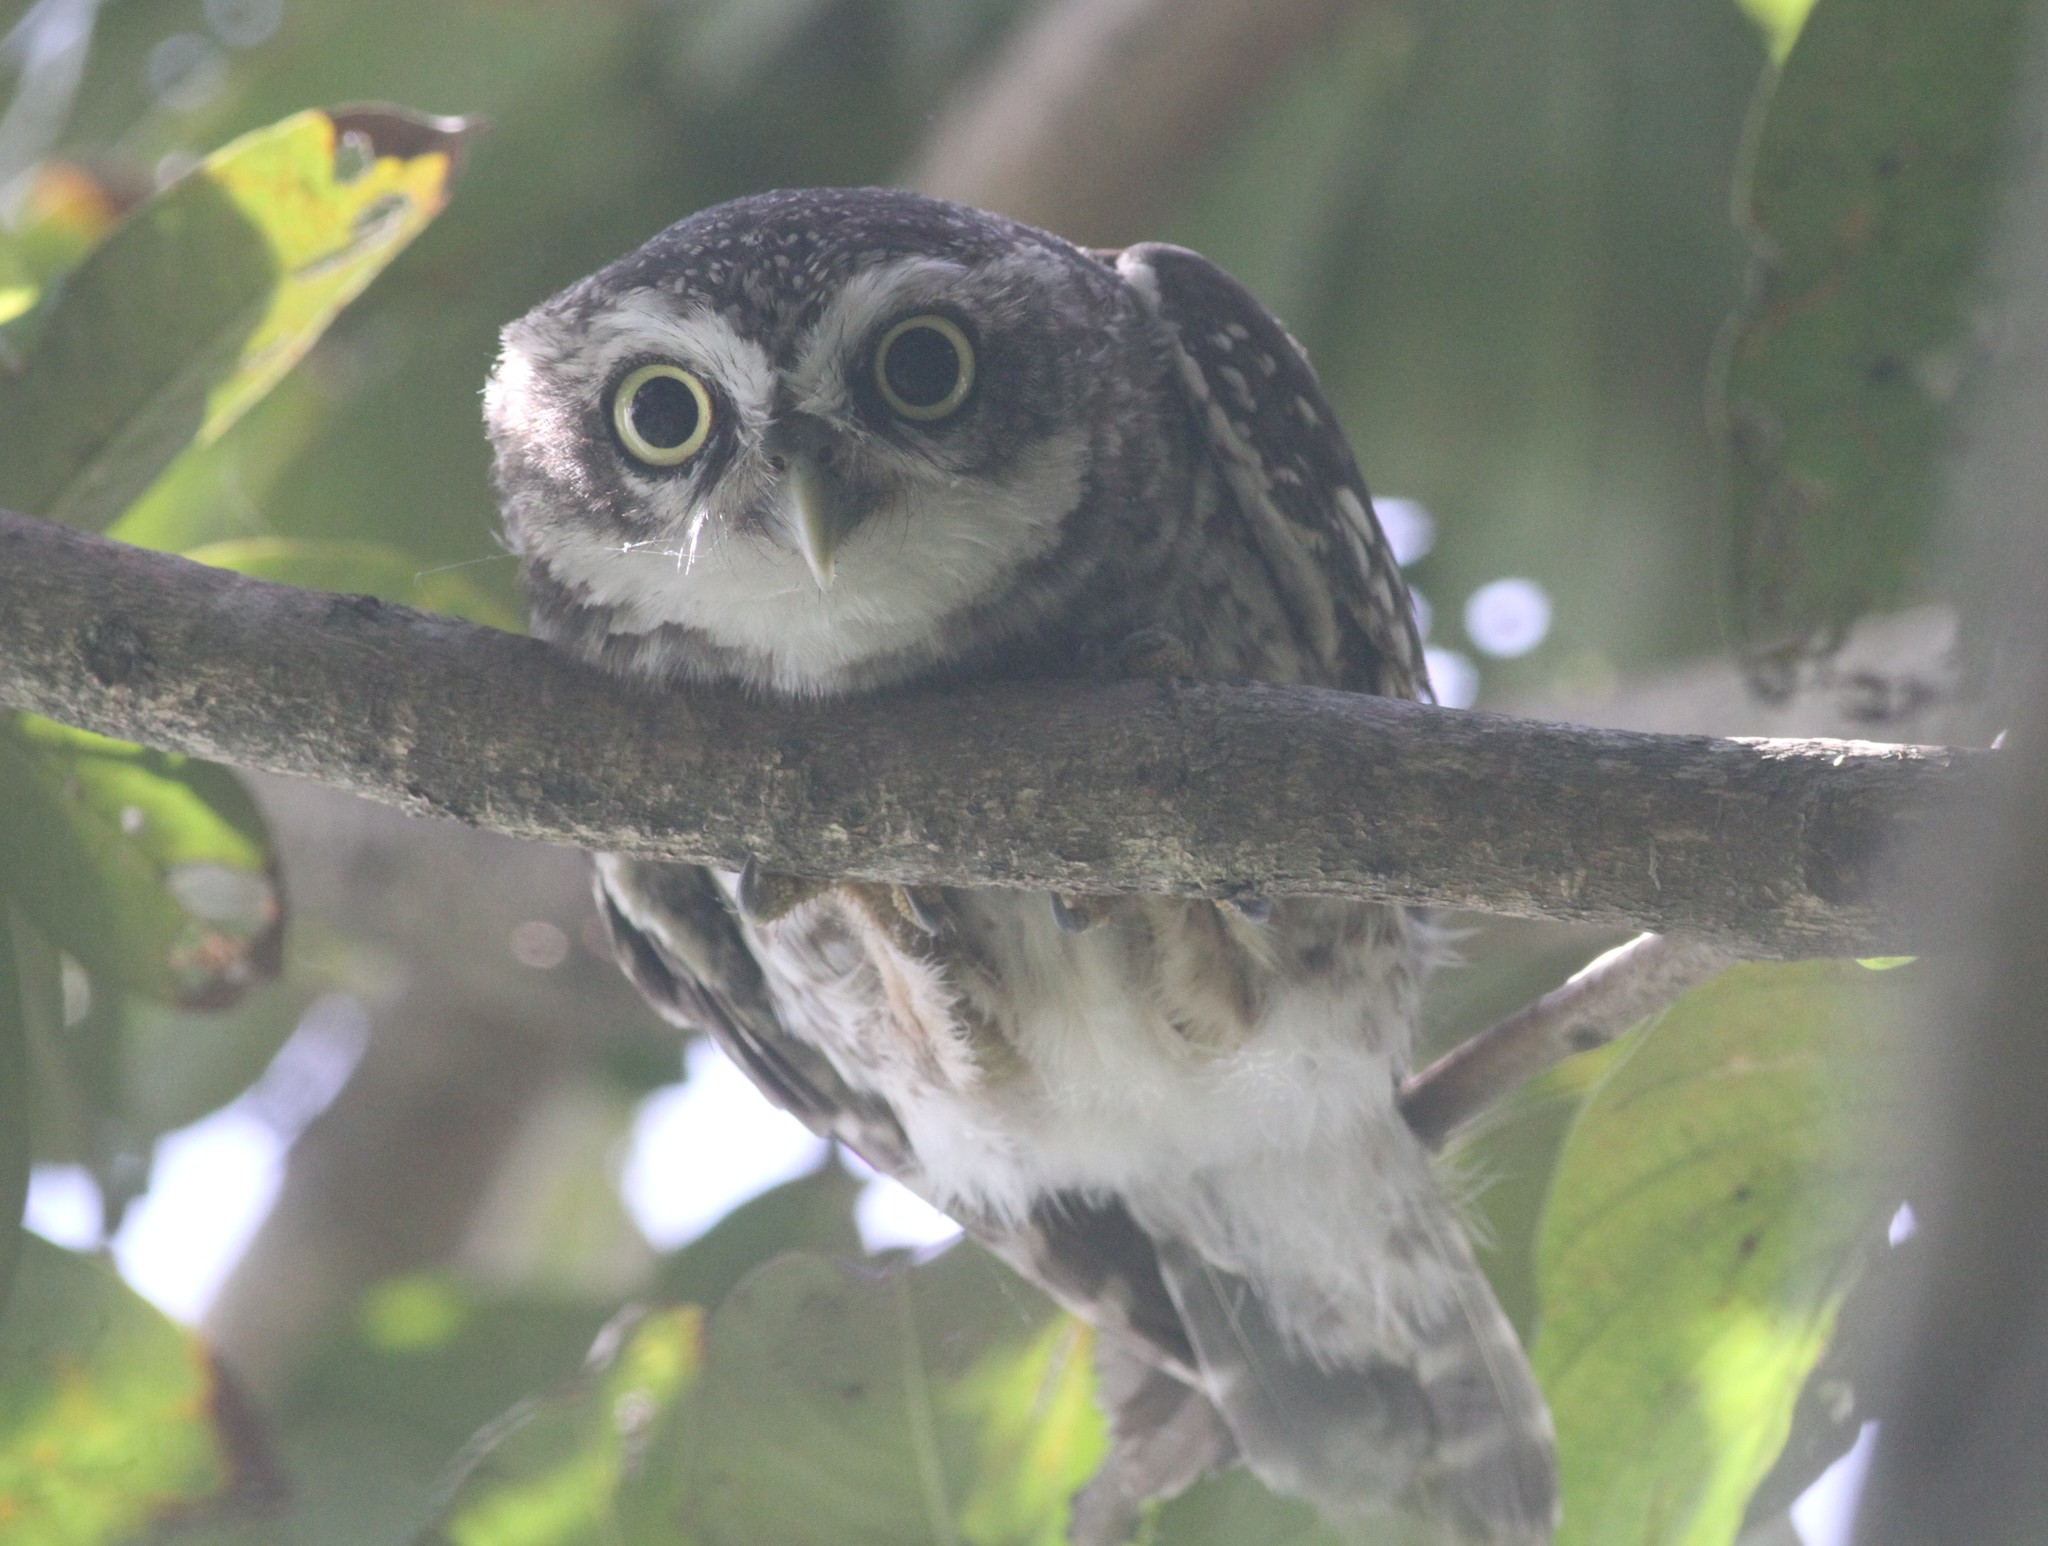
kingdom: Animalia
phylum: Chordata
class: Aves
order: Strigiformes
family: Strigidae
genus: Athene
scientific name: Athene brama
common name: Spotted owlet
